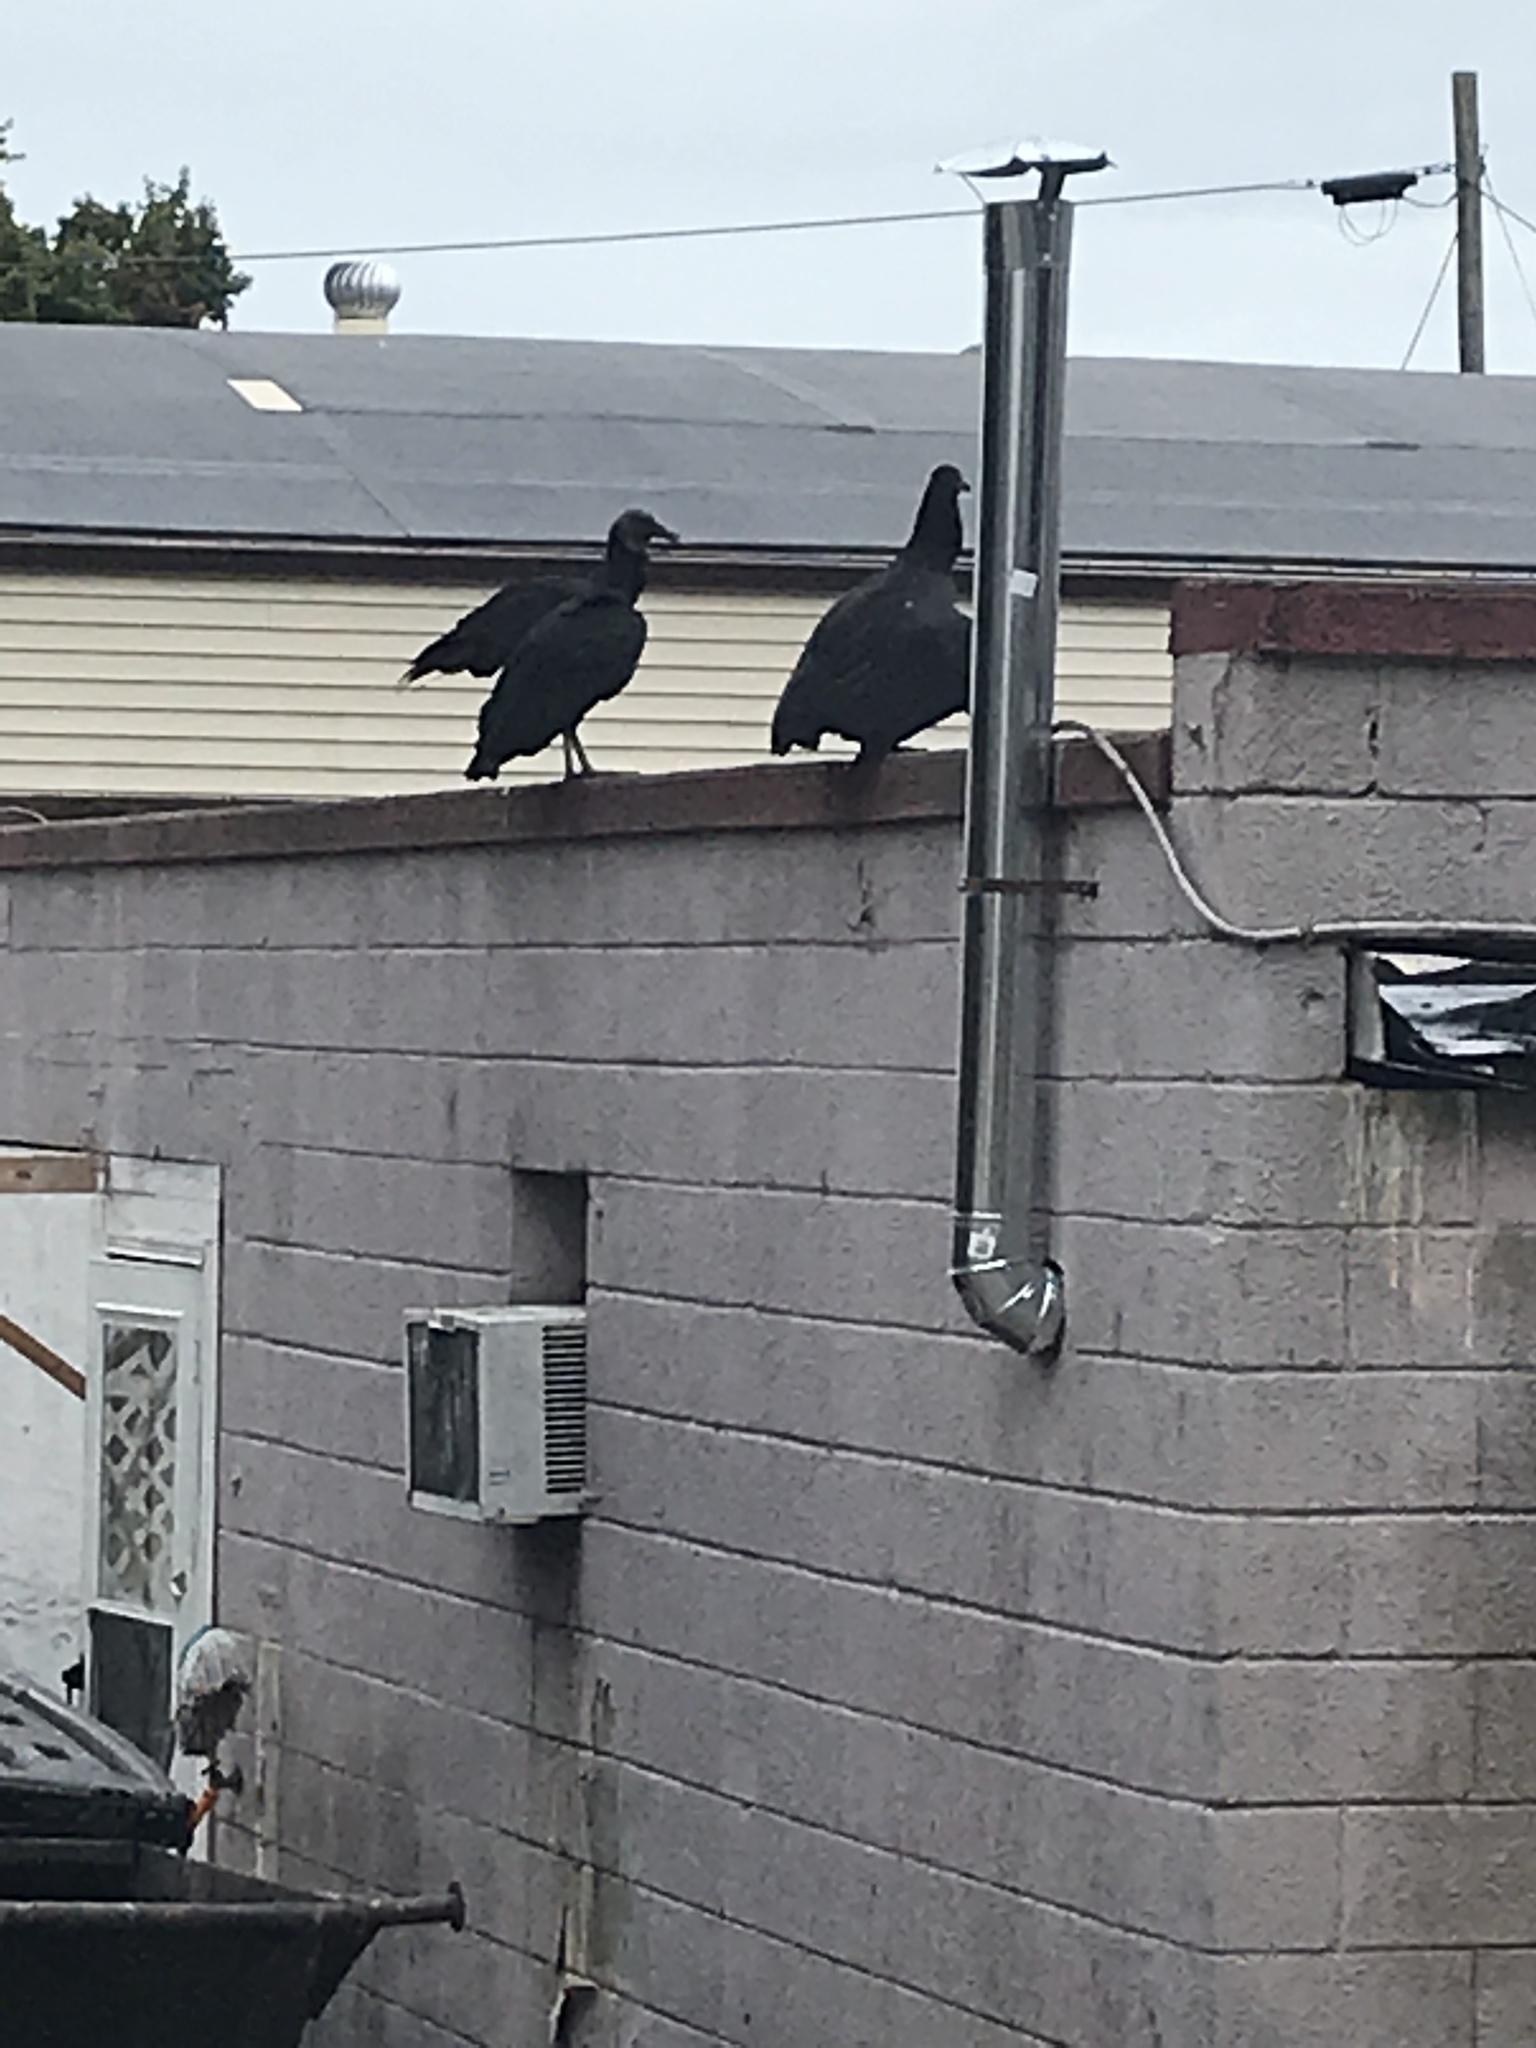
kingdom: Animalia
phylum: Chordata
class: Aves
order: Accipitriformes
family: Cathartidae
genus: Coragyps
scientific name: Coragyps atratus
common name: Black vulture
